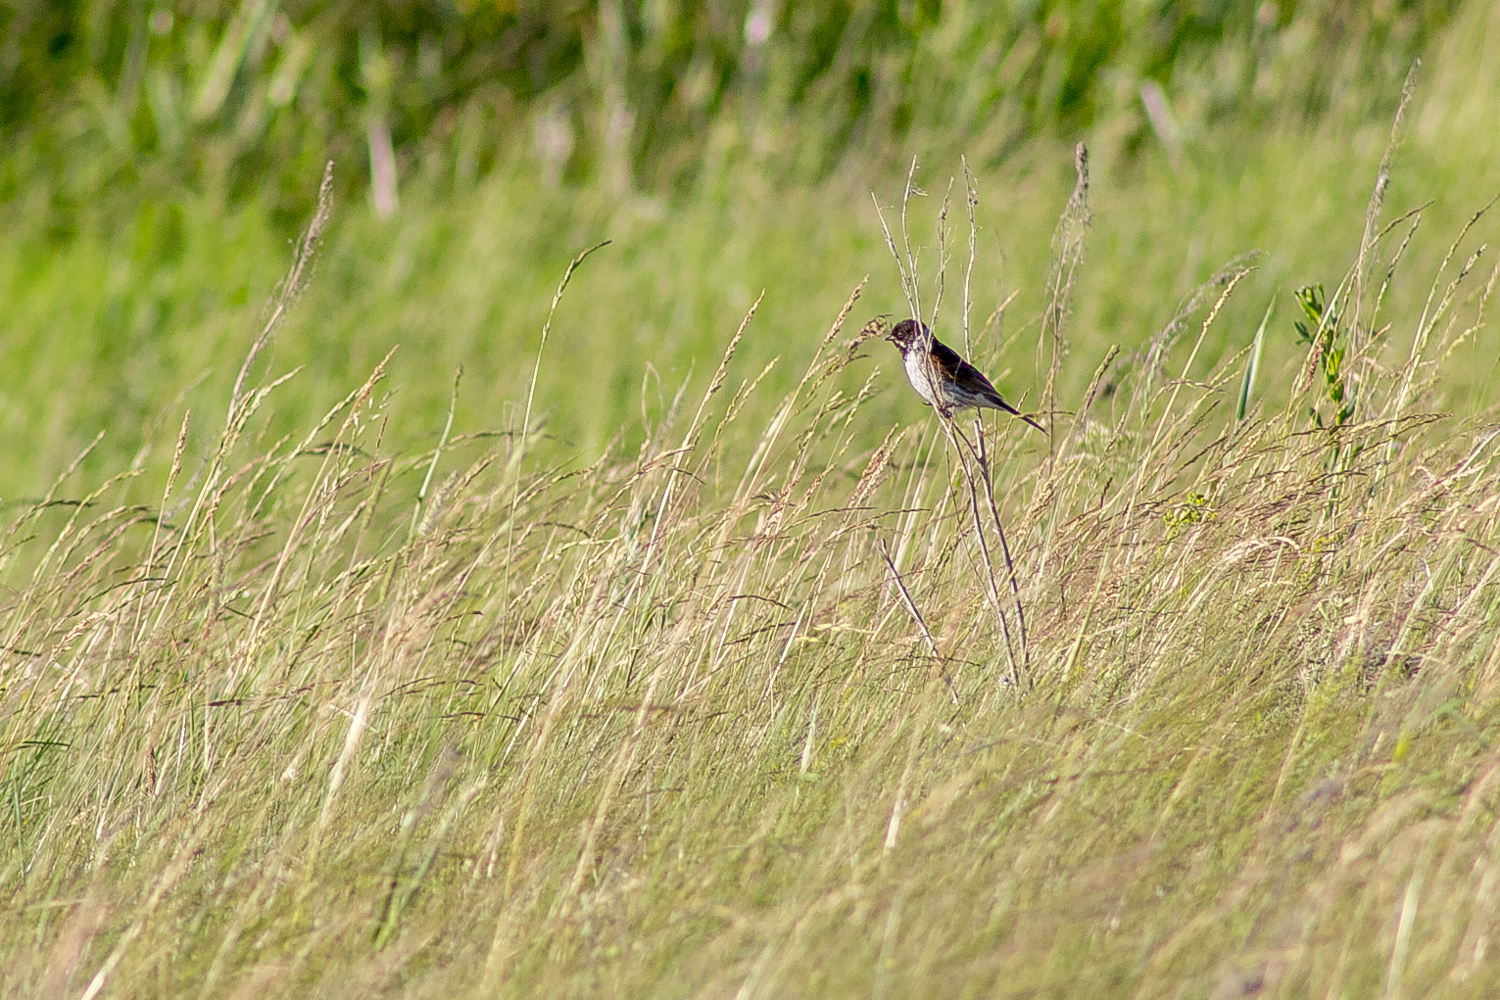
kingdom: Animalia
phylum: Chordata
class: Aves
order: Passeriformes
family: Emberizidae
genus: Emberiza
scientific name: Emberiza schoeniclus
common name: Reed bunting
